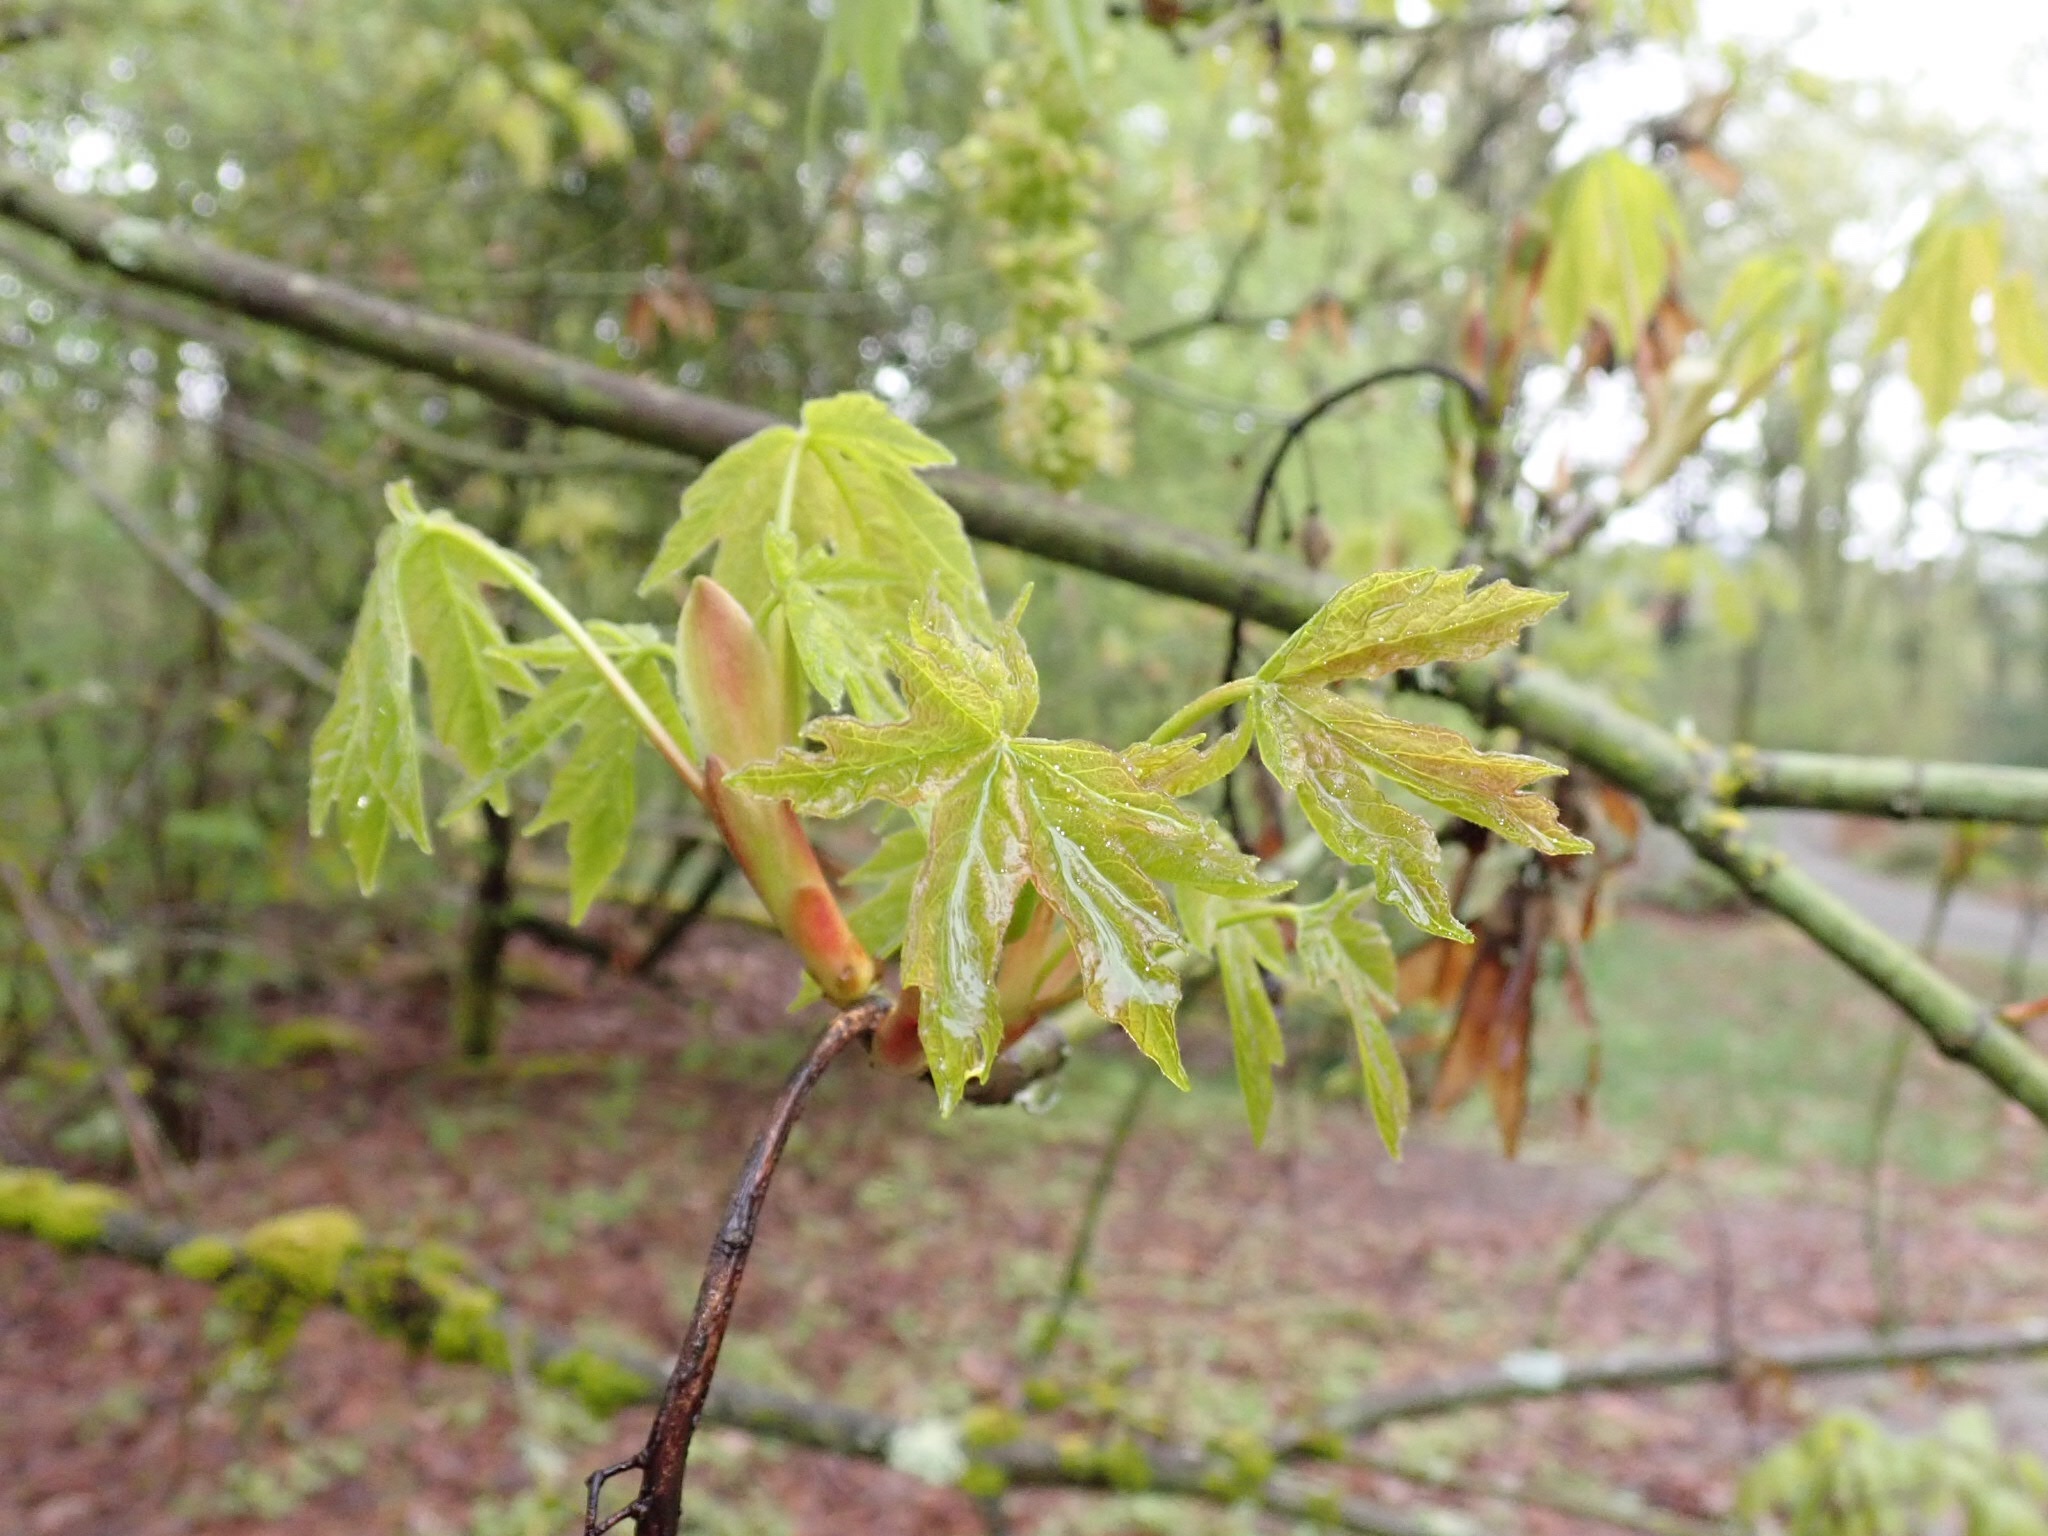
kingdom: Plantae
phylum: Tracheophyta
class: Magnoliopsida
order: Sapindales
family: Sapindaceae
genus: Acer
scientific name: Acer macrophyllum
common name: Oregon maple
